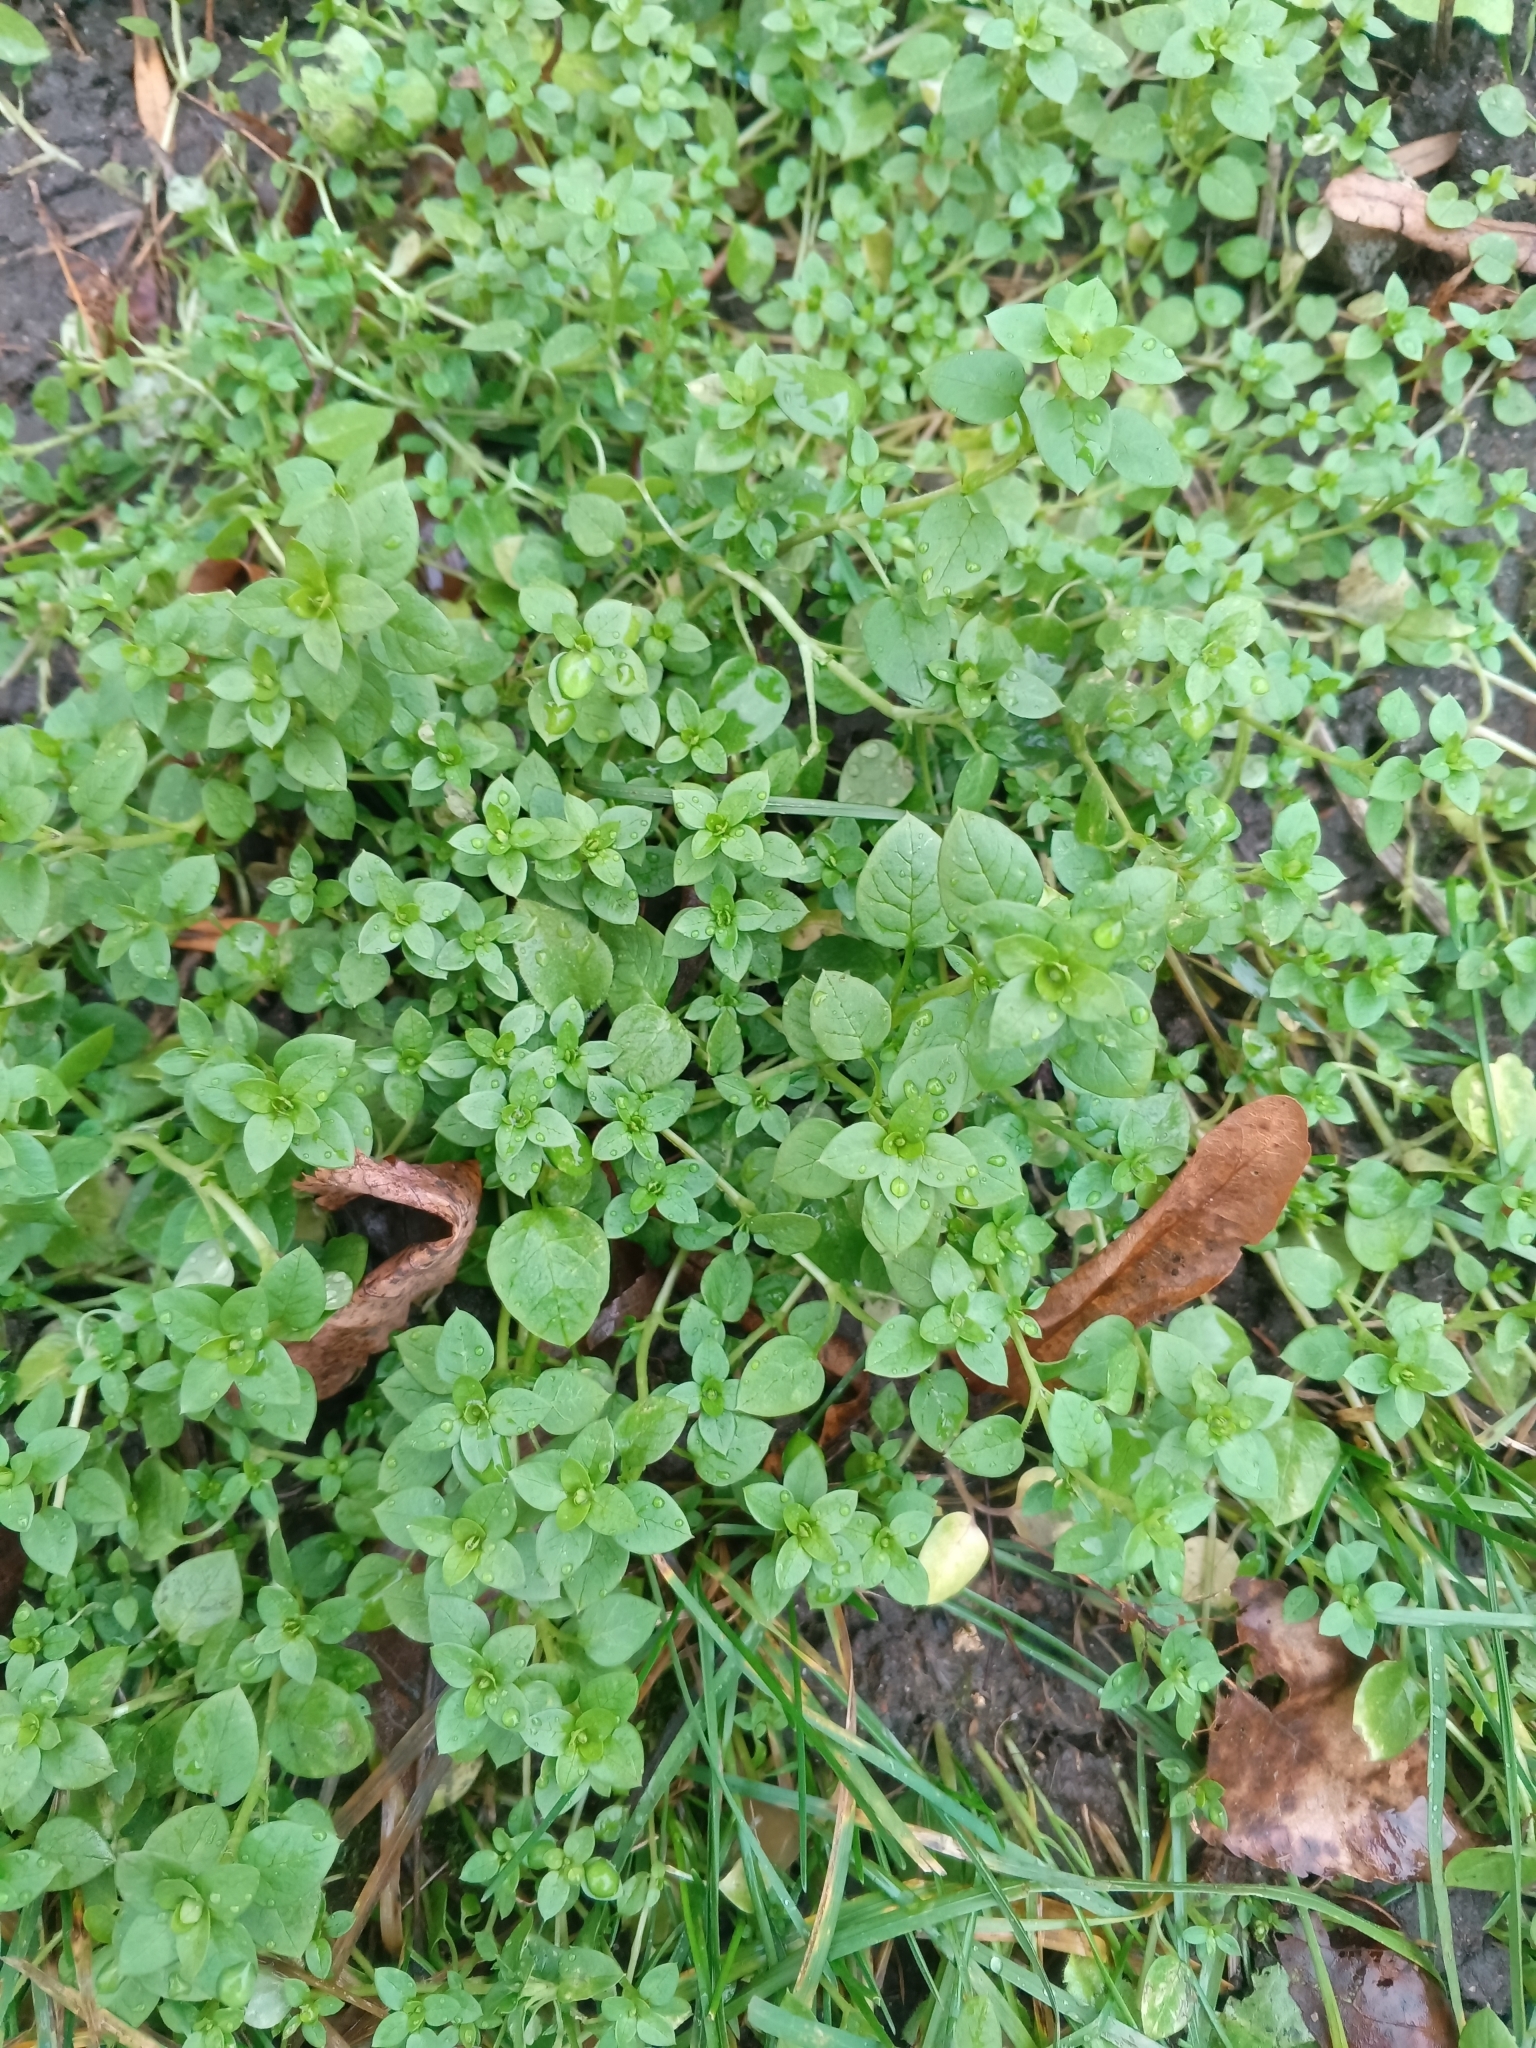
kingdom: Plantae
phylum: Tracheophyta
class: Magnoliopsida
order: Caryophyllales
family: Caryophyllaceae
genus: Stellaria
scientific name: Stellaria media
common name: Common chickweed
